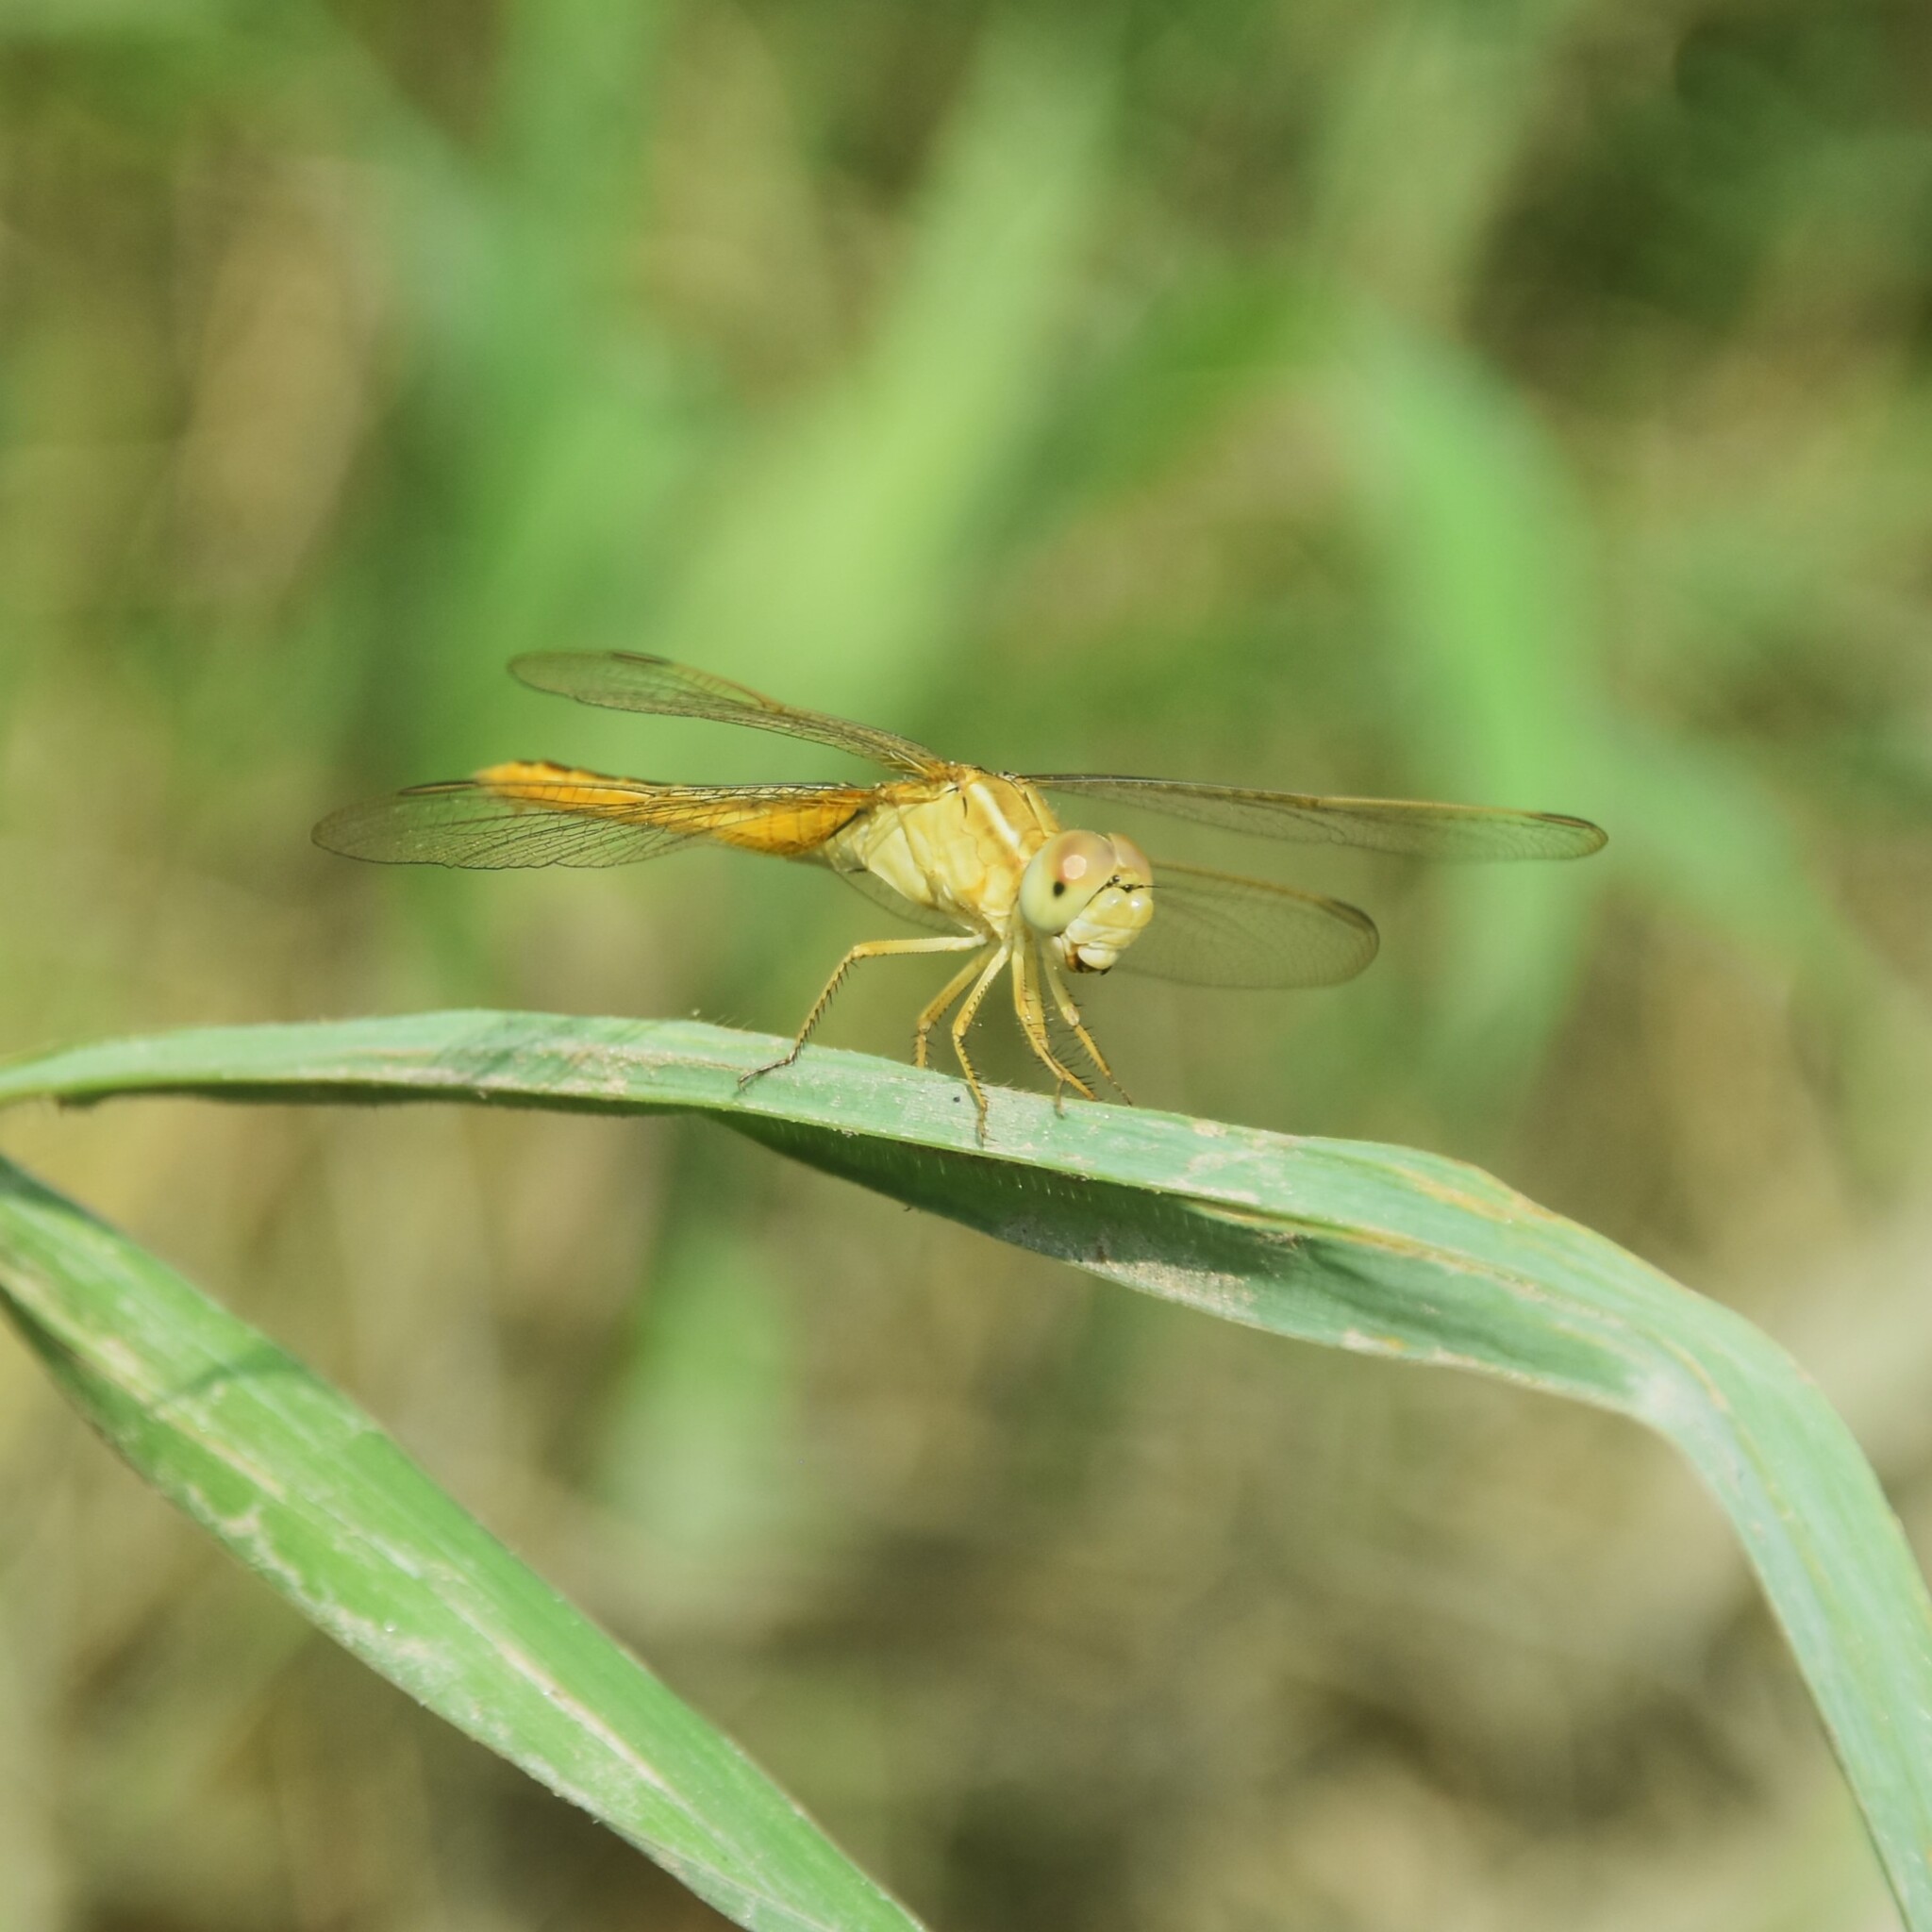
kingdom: Animalia
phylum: Arthropoda
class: Insecta
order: Odonata
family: Libellulidae
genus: Crocothemis
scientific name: Crocothemis servilia
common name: Scarlet skimmer
